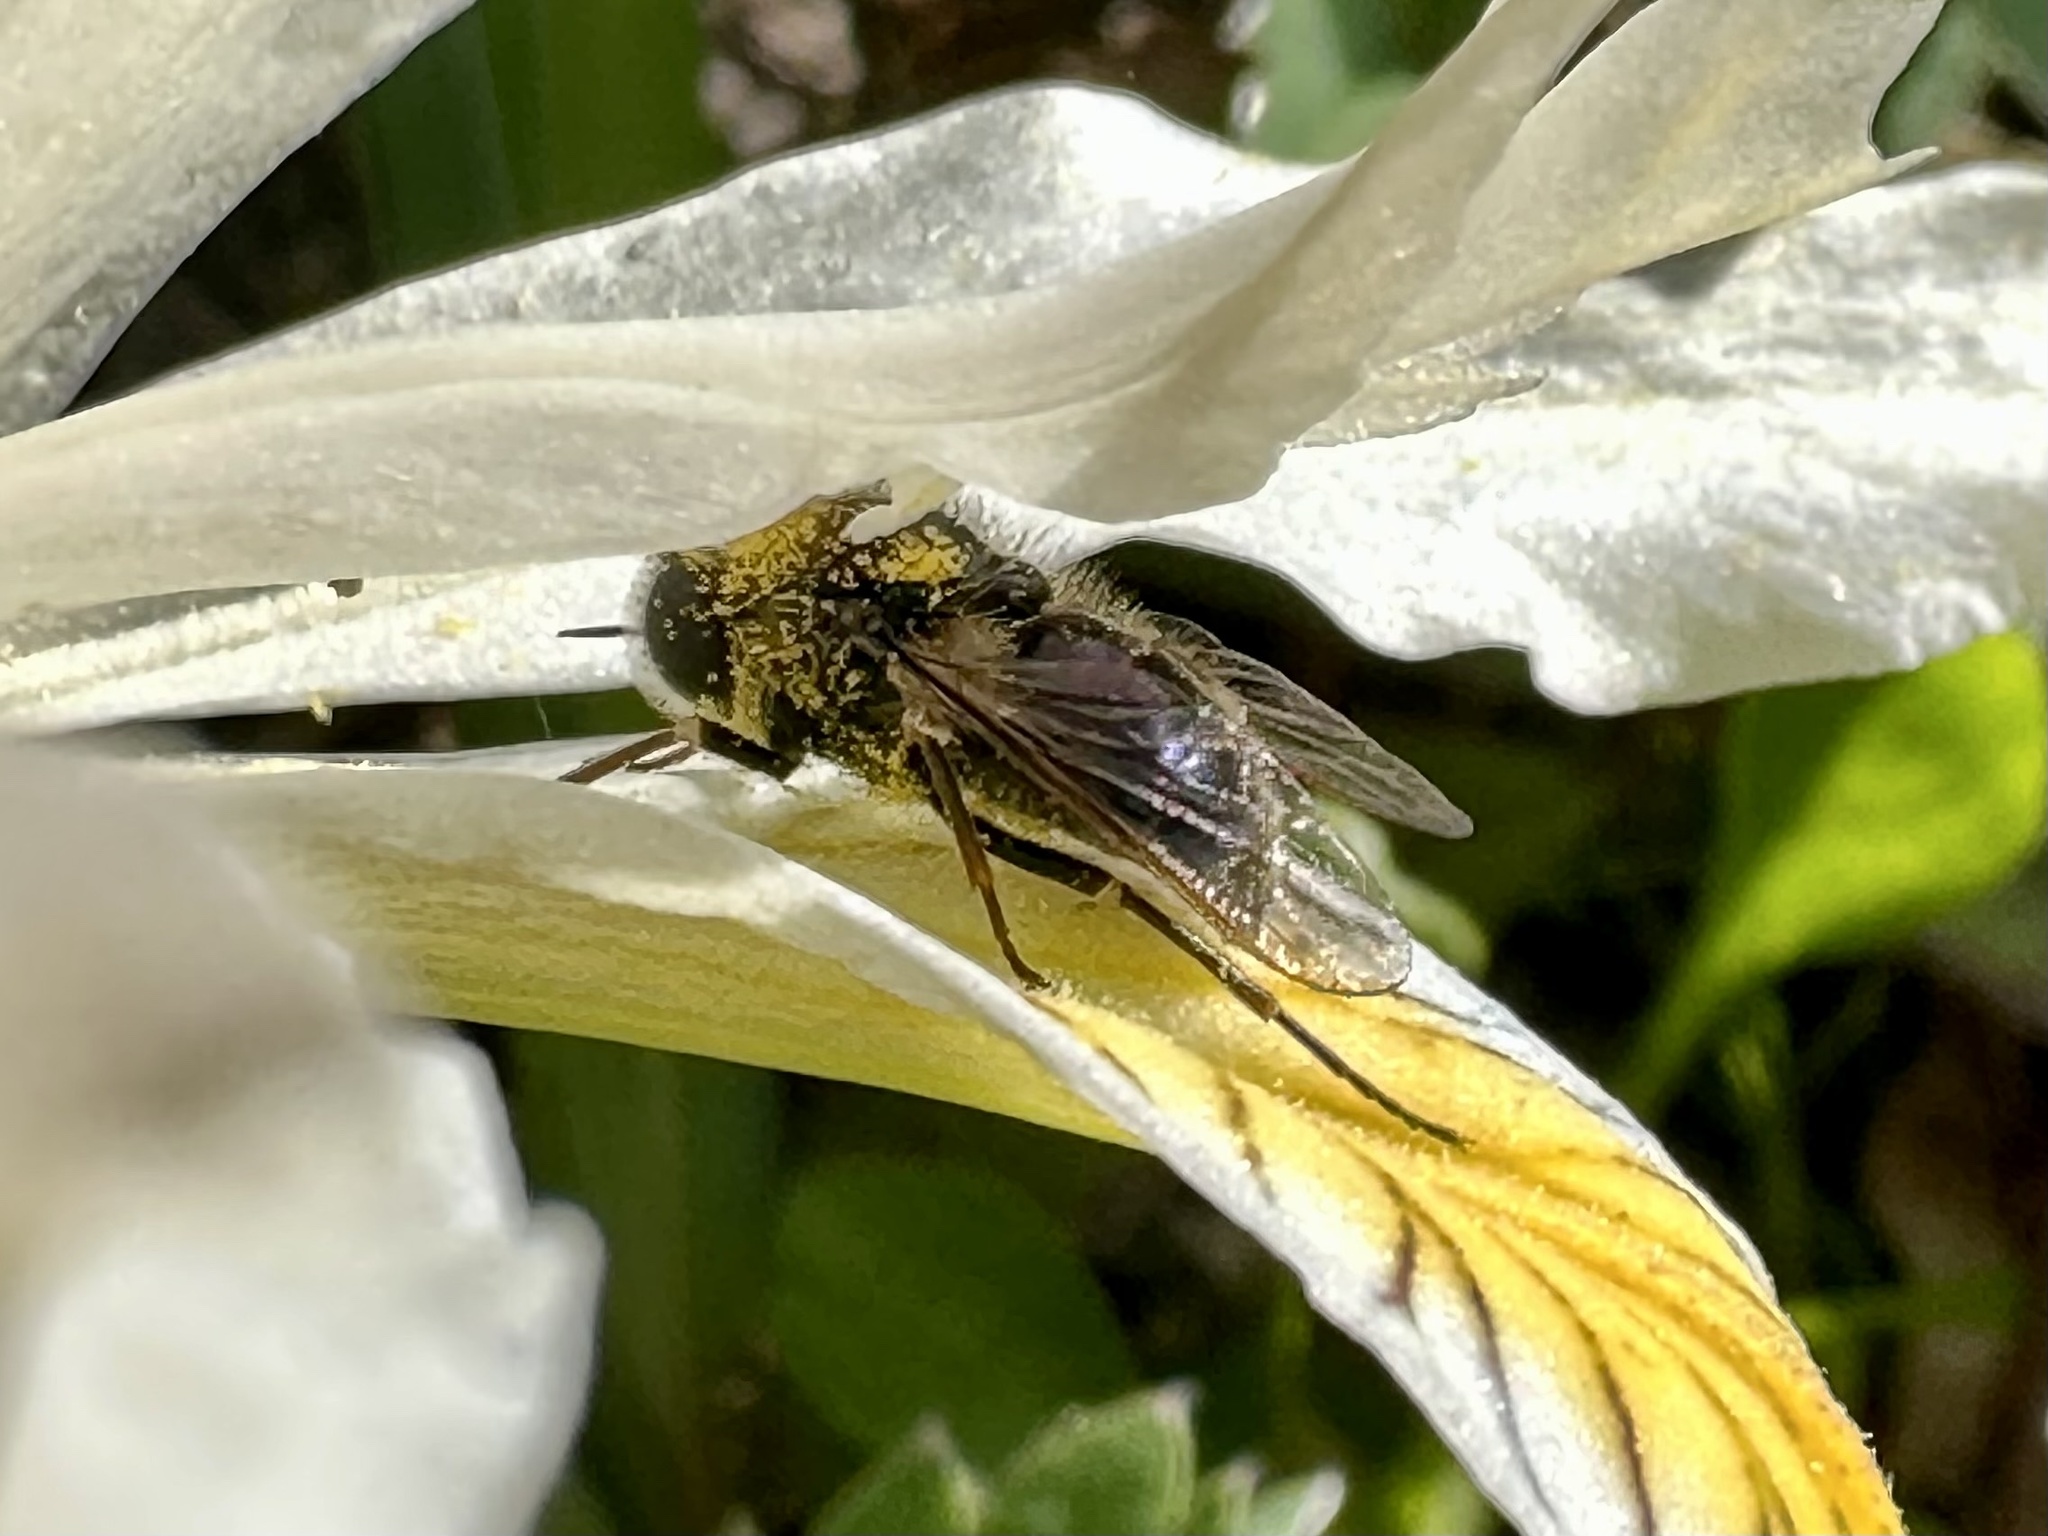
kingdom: Animalia
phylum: Arthropoda
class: Insecta
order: Diptera
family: Acroceridae
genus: Eulonchus
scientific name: Eulonchus tristis
